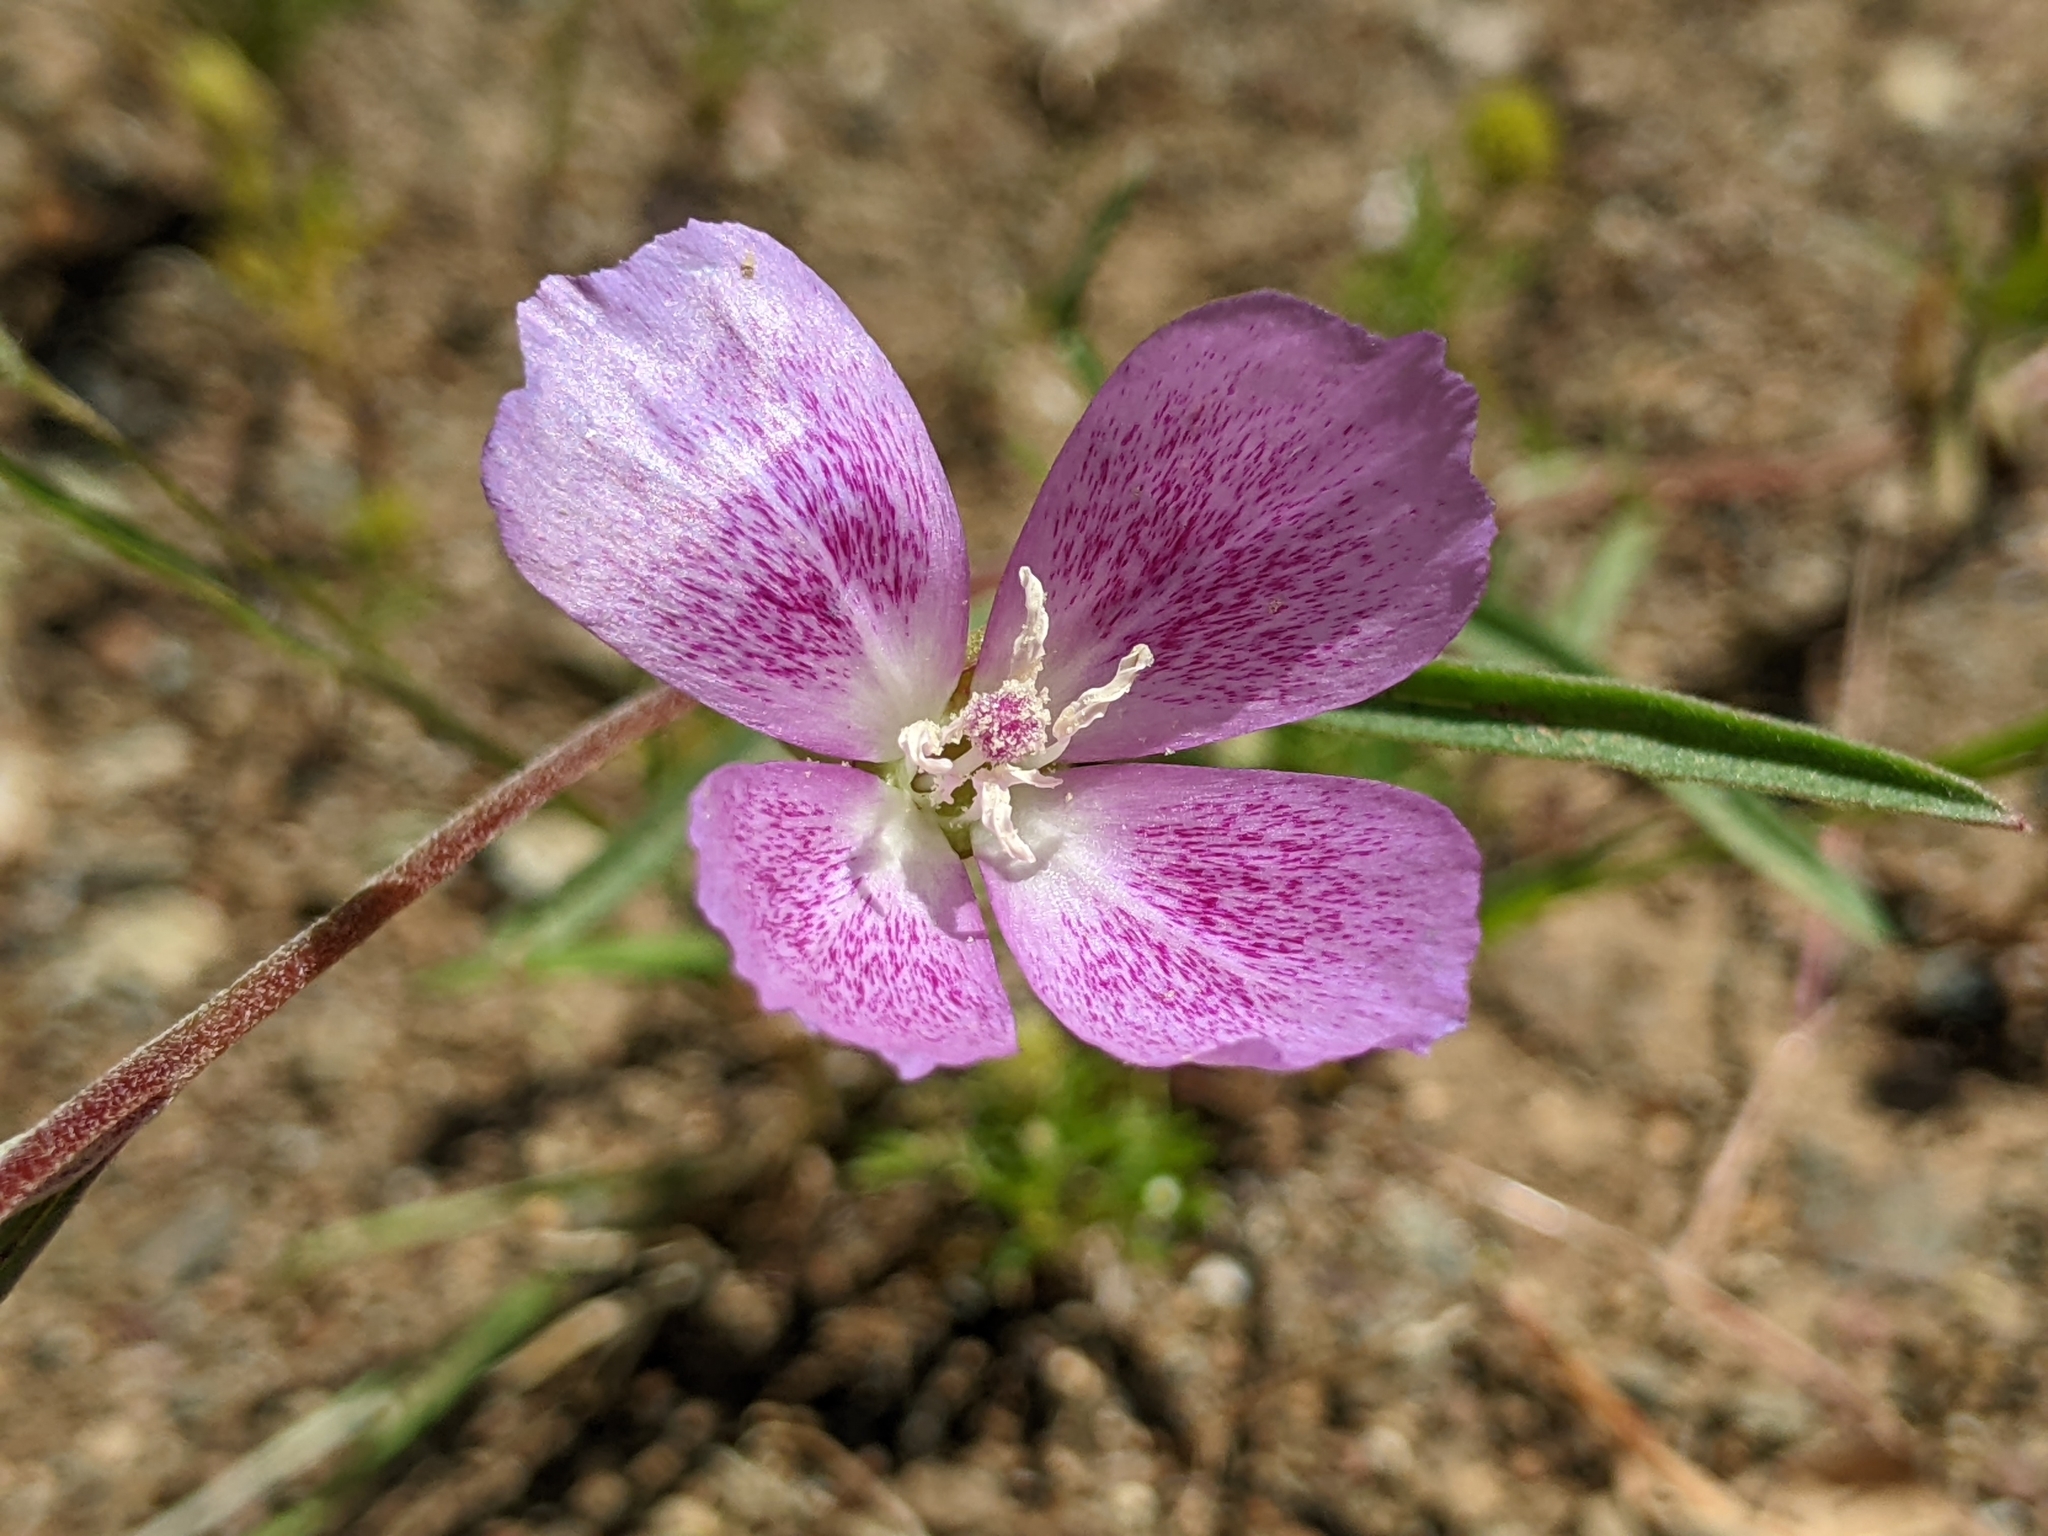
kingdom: Plantae
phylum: Tracheophyta
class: Magnoliopsida
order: Myrtales
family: Onagraceae
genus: Clarkia
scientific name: Clarkia affinis
